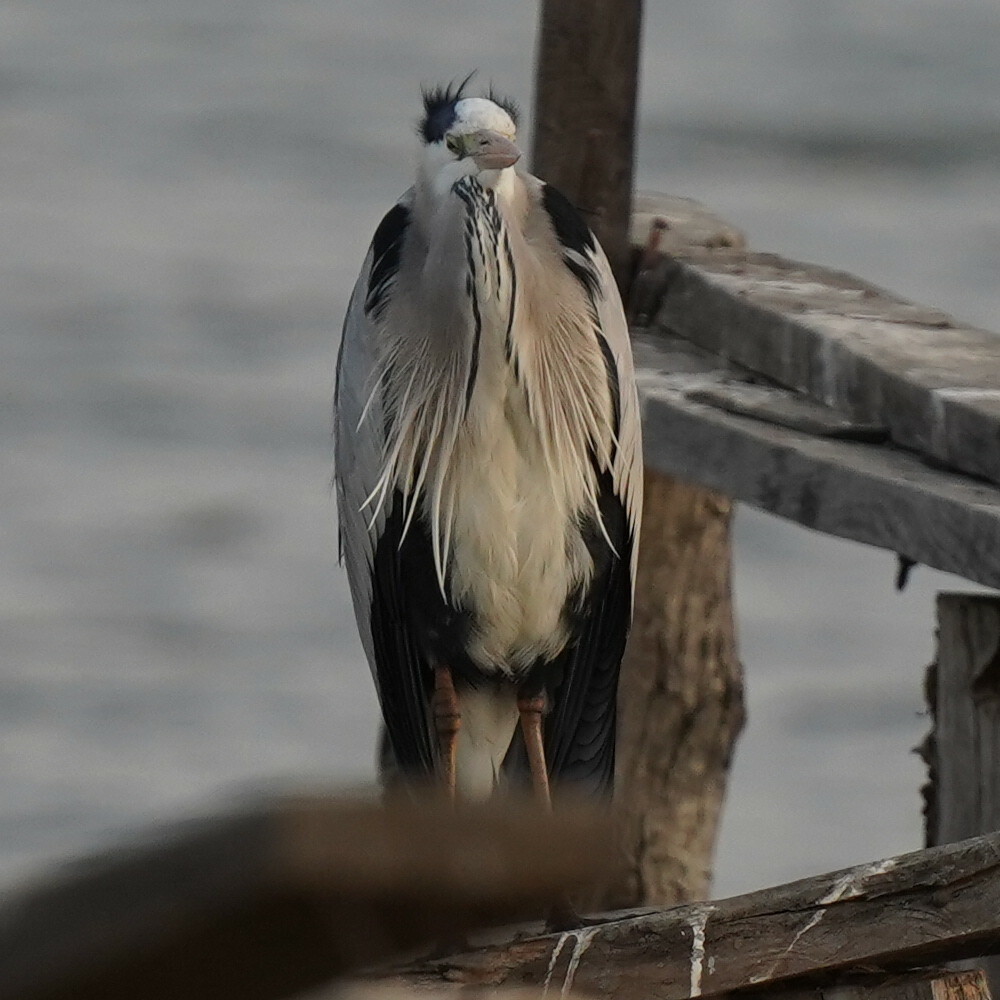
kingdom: Animalia
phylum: Chordata
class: Aves
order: Pelecaniformes
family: Ardeidae
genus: Ardea
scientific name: Ardea cinerea
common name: Grey heron
